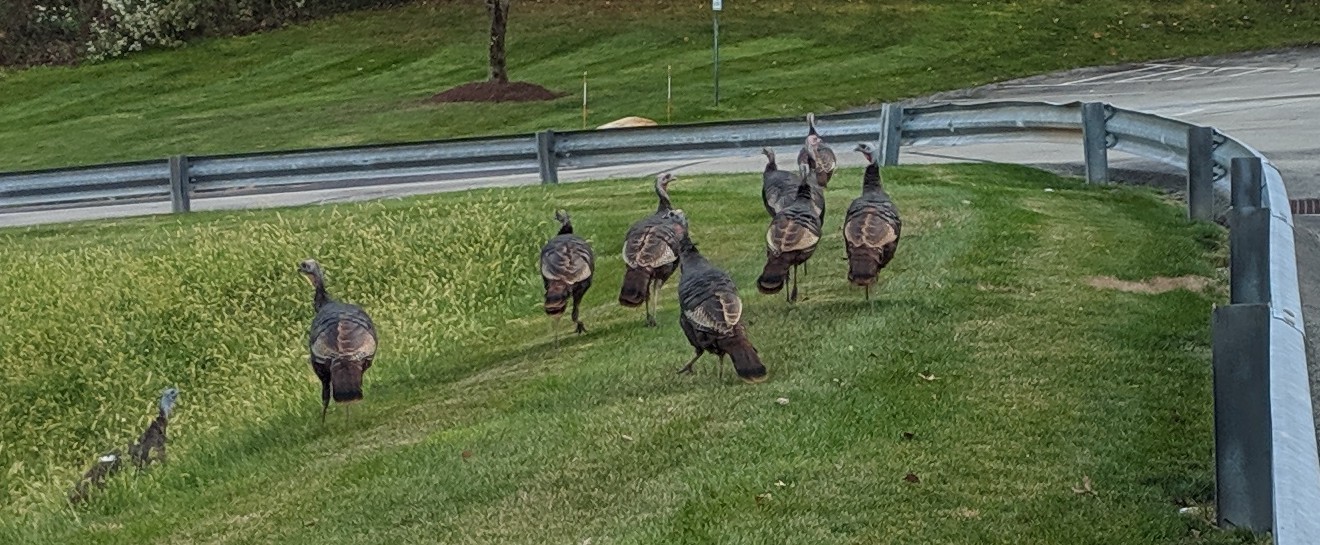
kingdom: Animalia
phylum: Chordata
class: Aves
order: Galliformes
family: Phasianidae
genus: Meleagris
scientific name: Meleagris gallopavo
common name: Wild turkey
